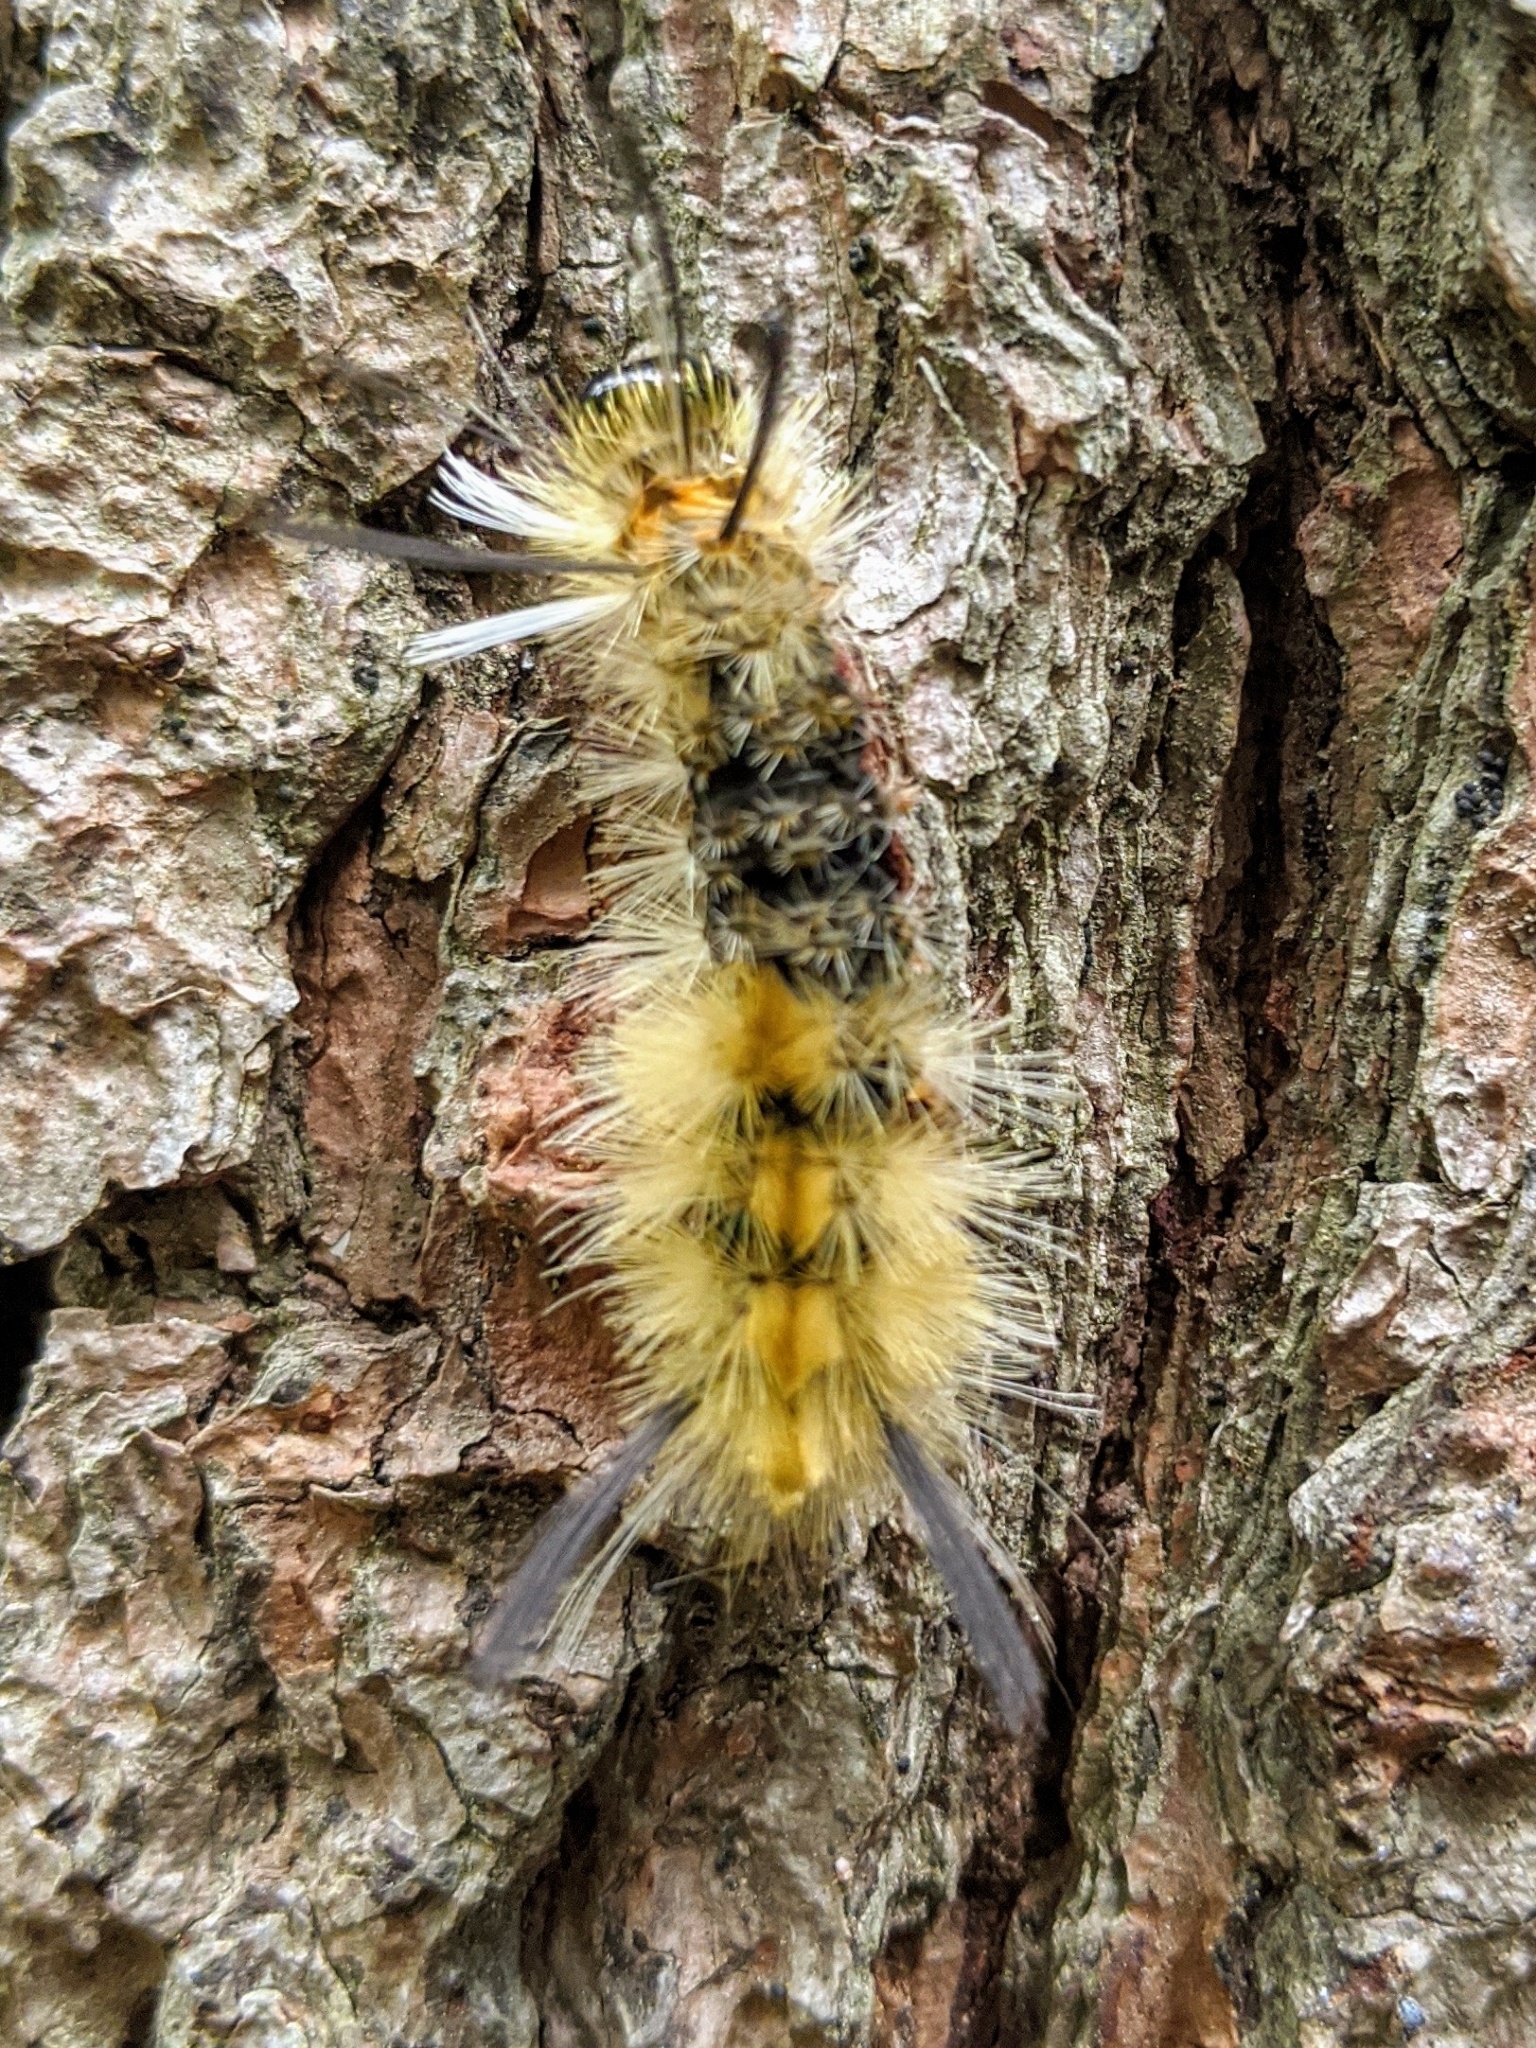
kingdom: Animalia
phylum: Arthropoda
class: Insecta
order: Lepidoptera
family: Erebidae
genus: Halysidota
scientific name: Halysidota tessellaris
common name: Banded tussock moth
